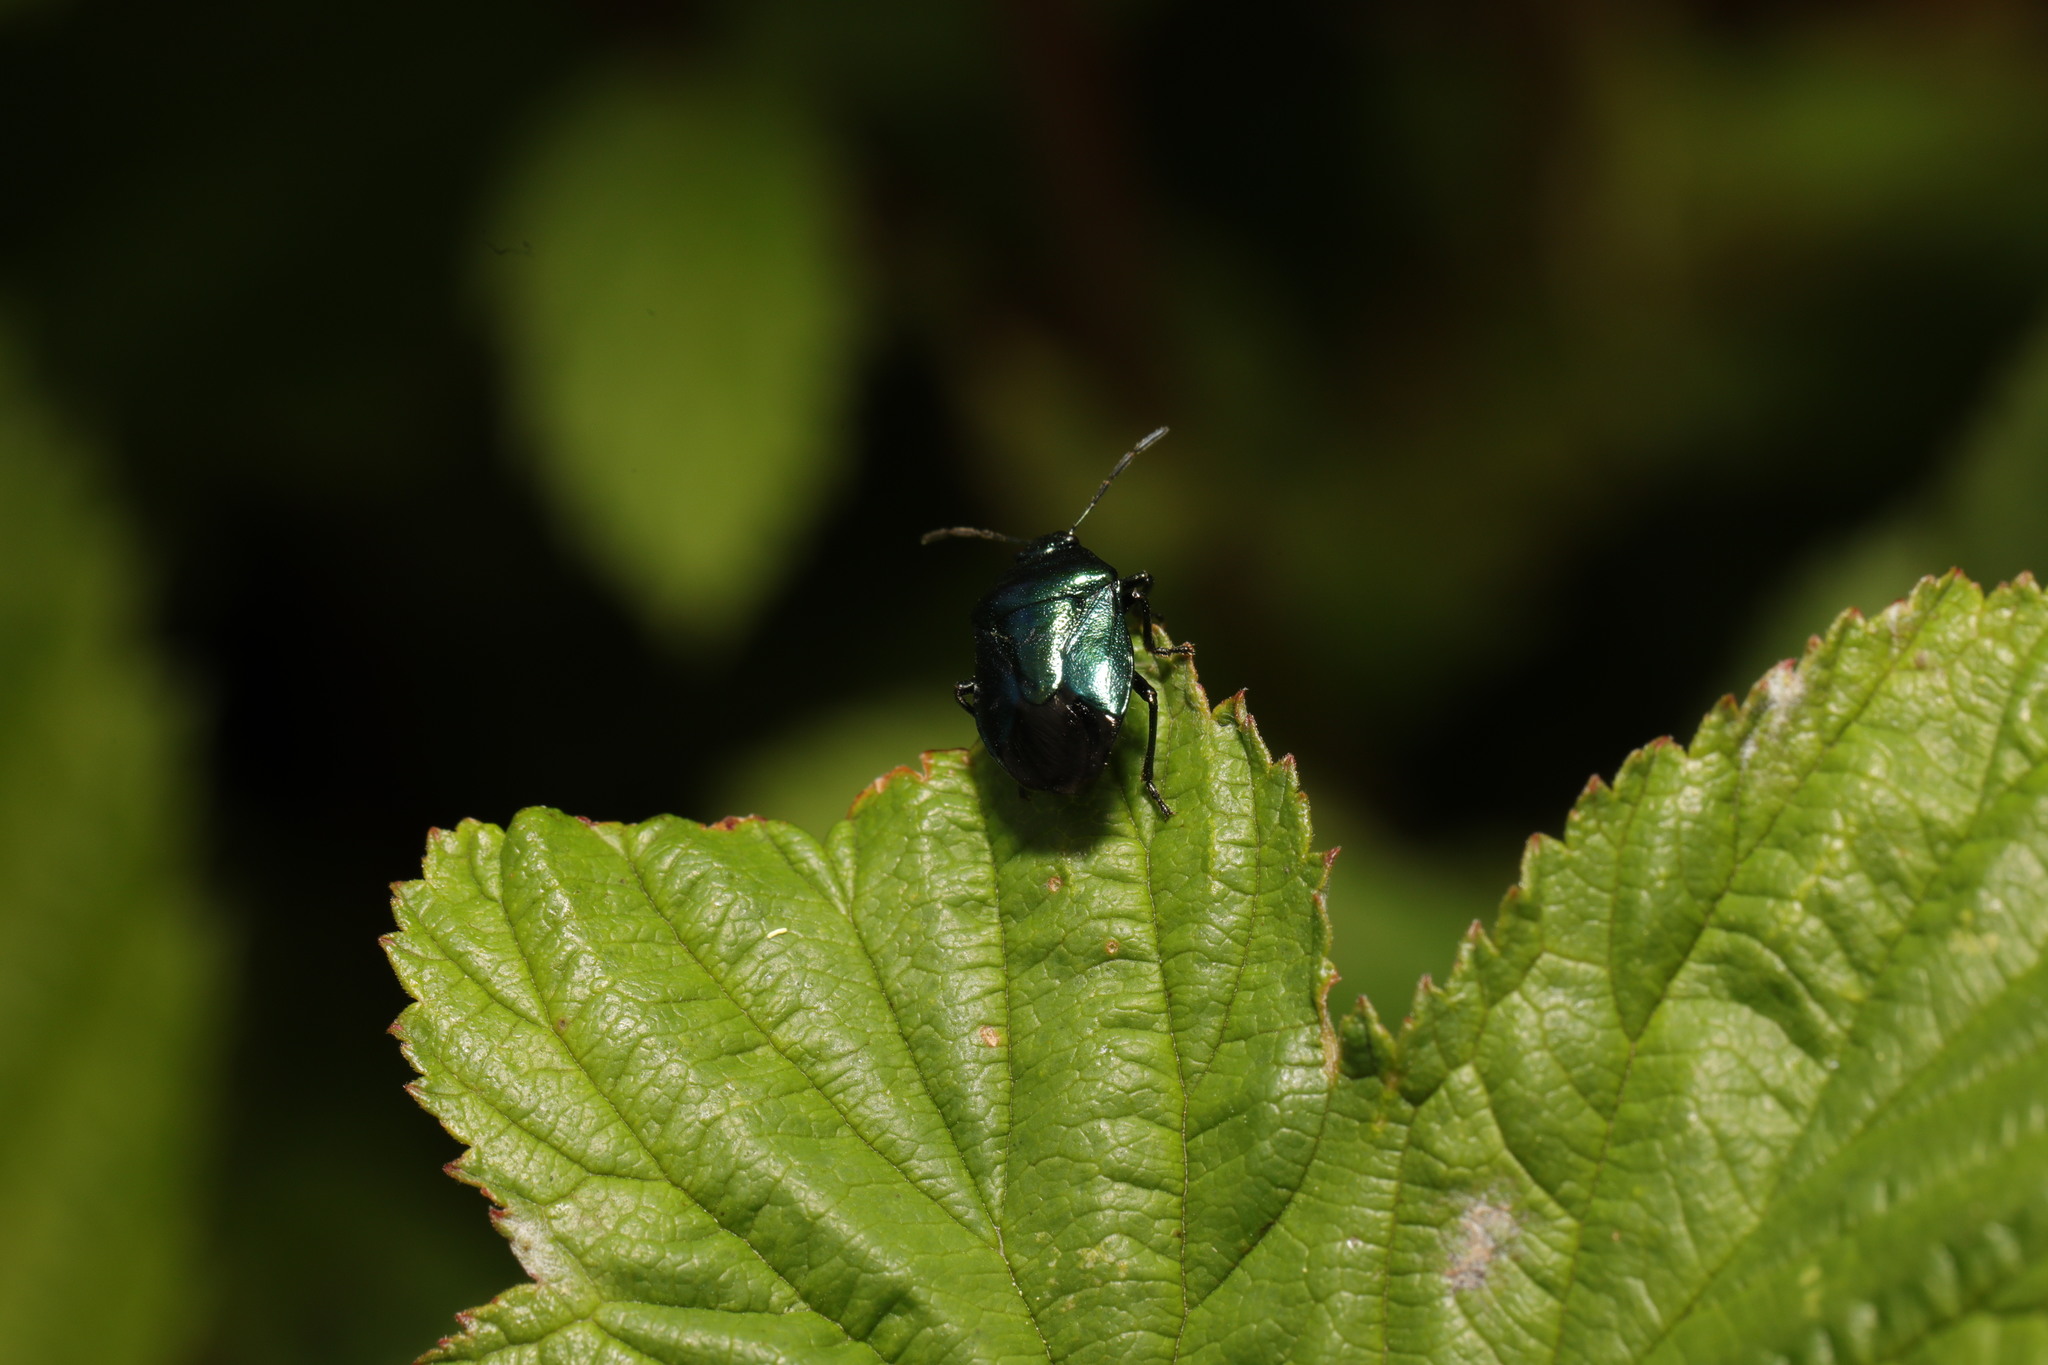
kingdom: Animalia
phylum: Arthropoda
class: Insecta
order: Hemiptera
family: Pentatomidae
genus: Zicrona
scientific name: Zicrona caerulea
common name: Blue shieldbug
